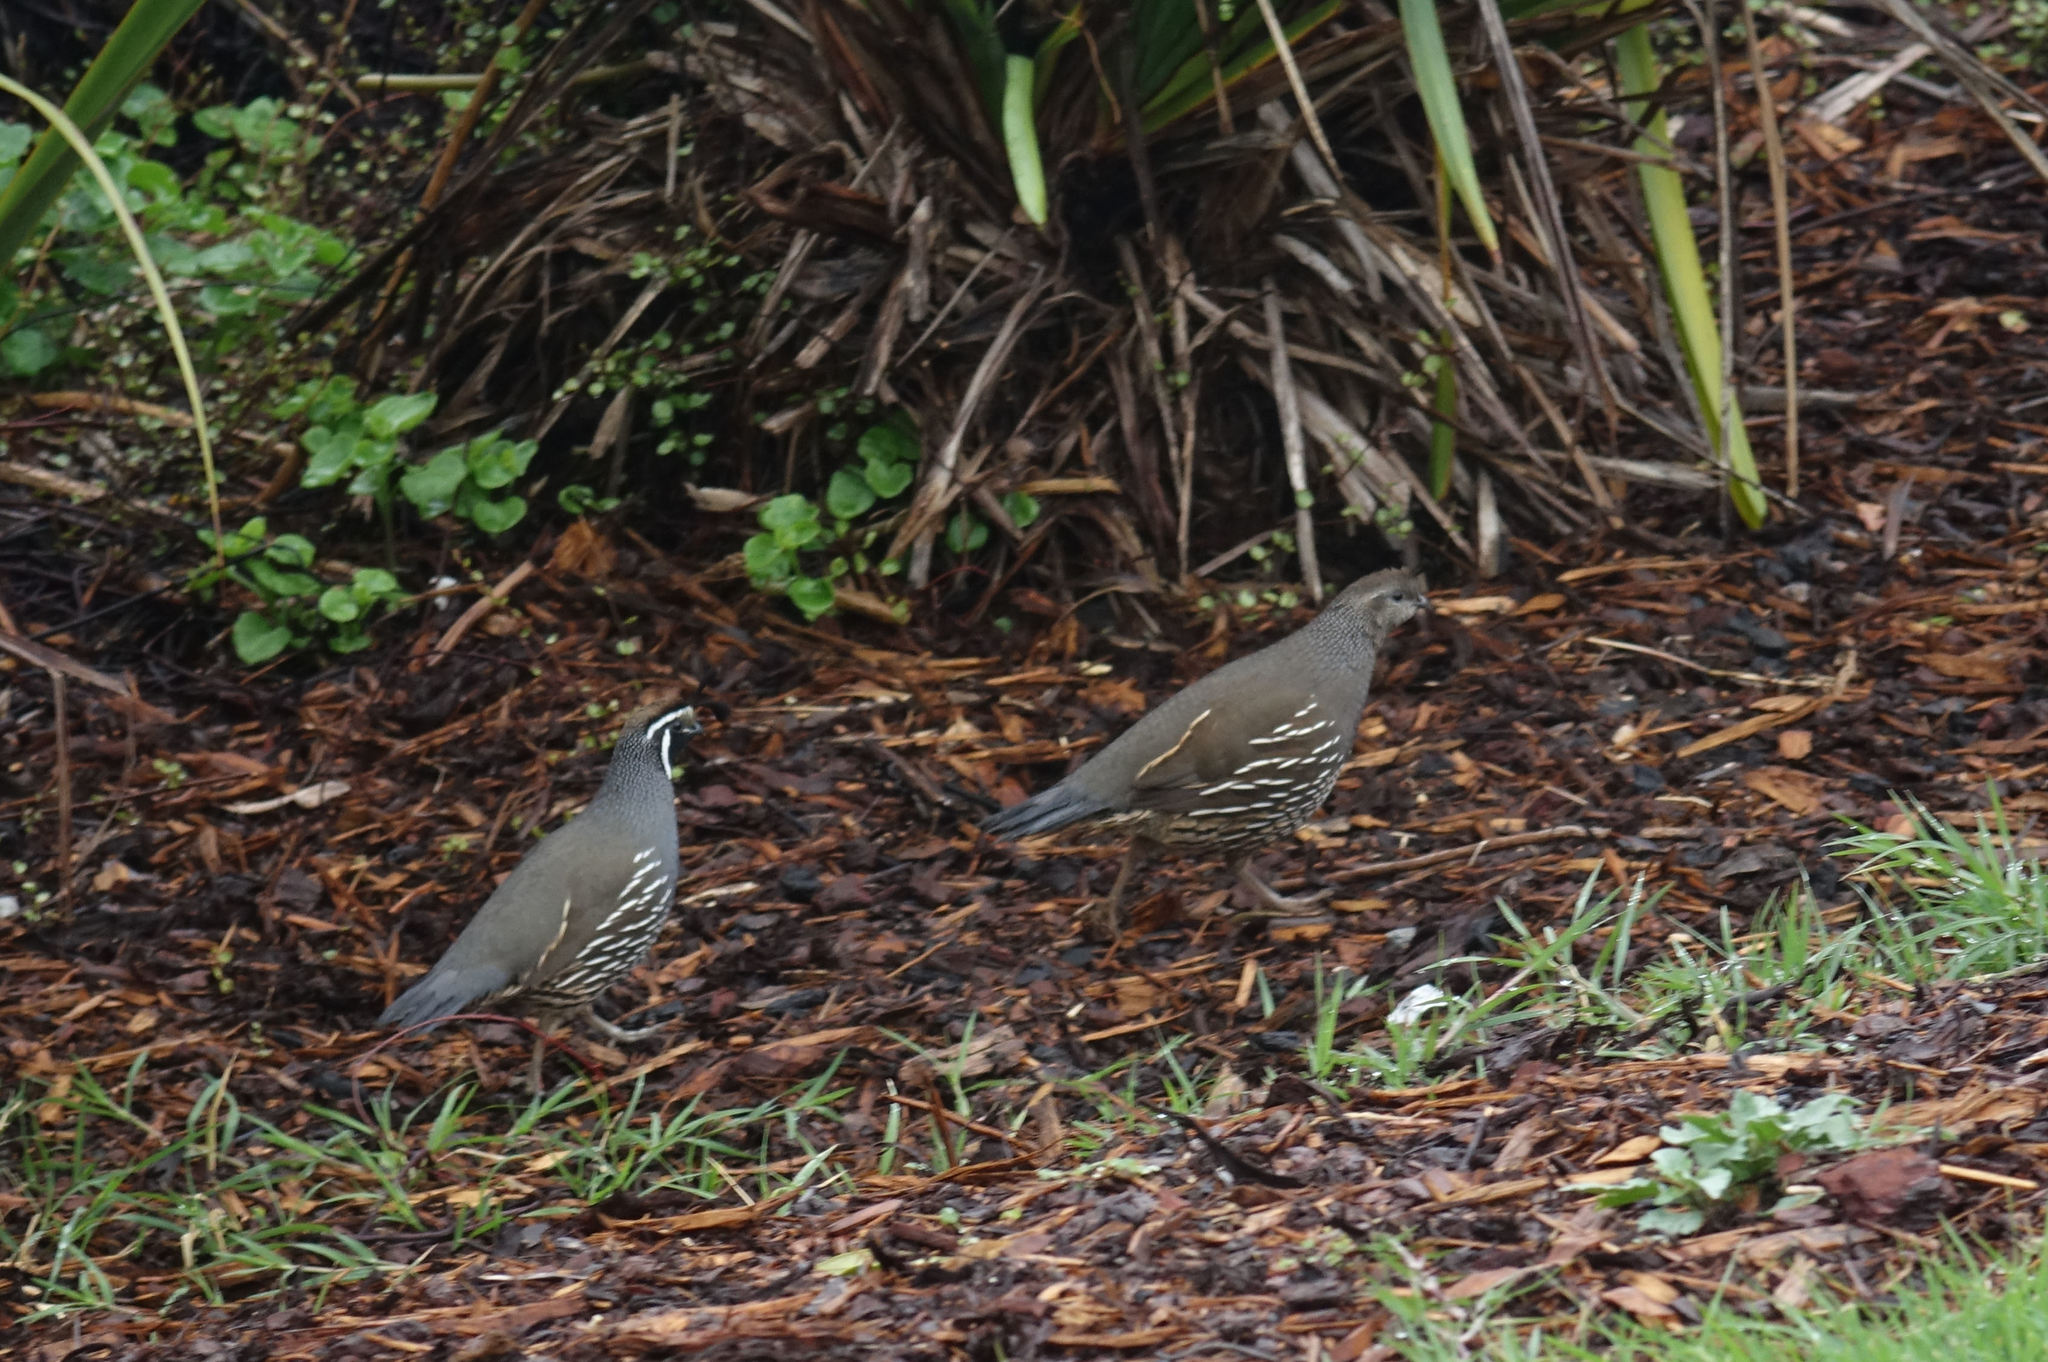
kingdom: Animalia
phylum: Chordata
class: Aves
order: Galliformes
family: Odontophoridae
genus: Callipepla
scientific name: Callipepla californica
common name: California quail
